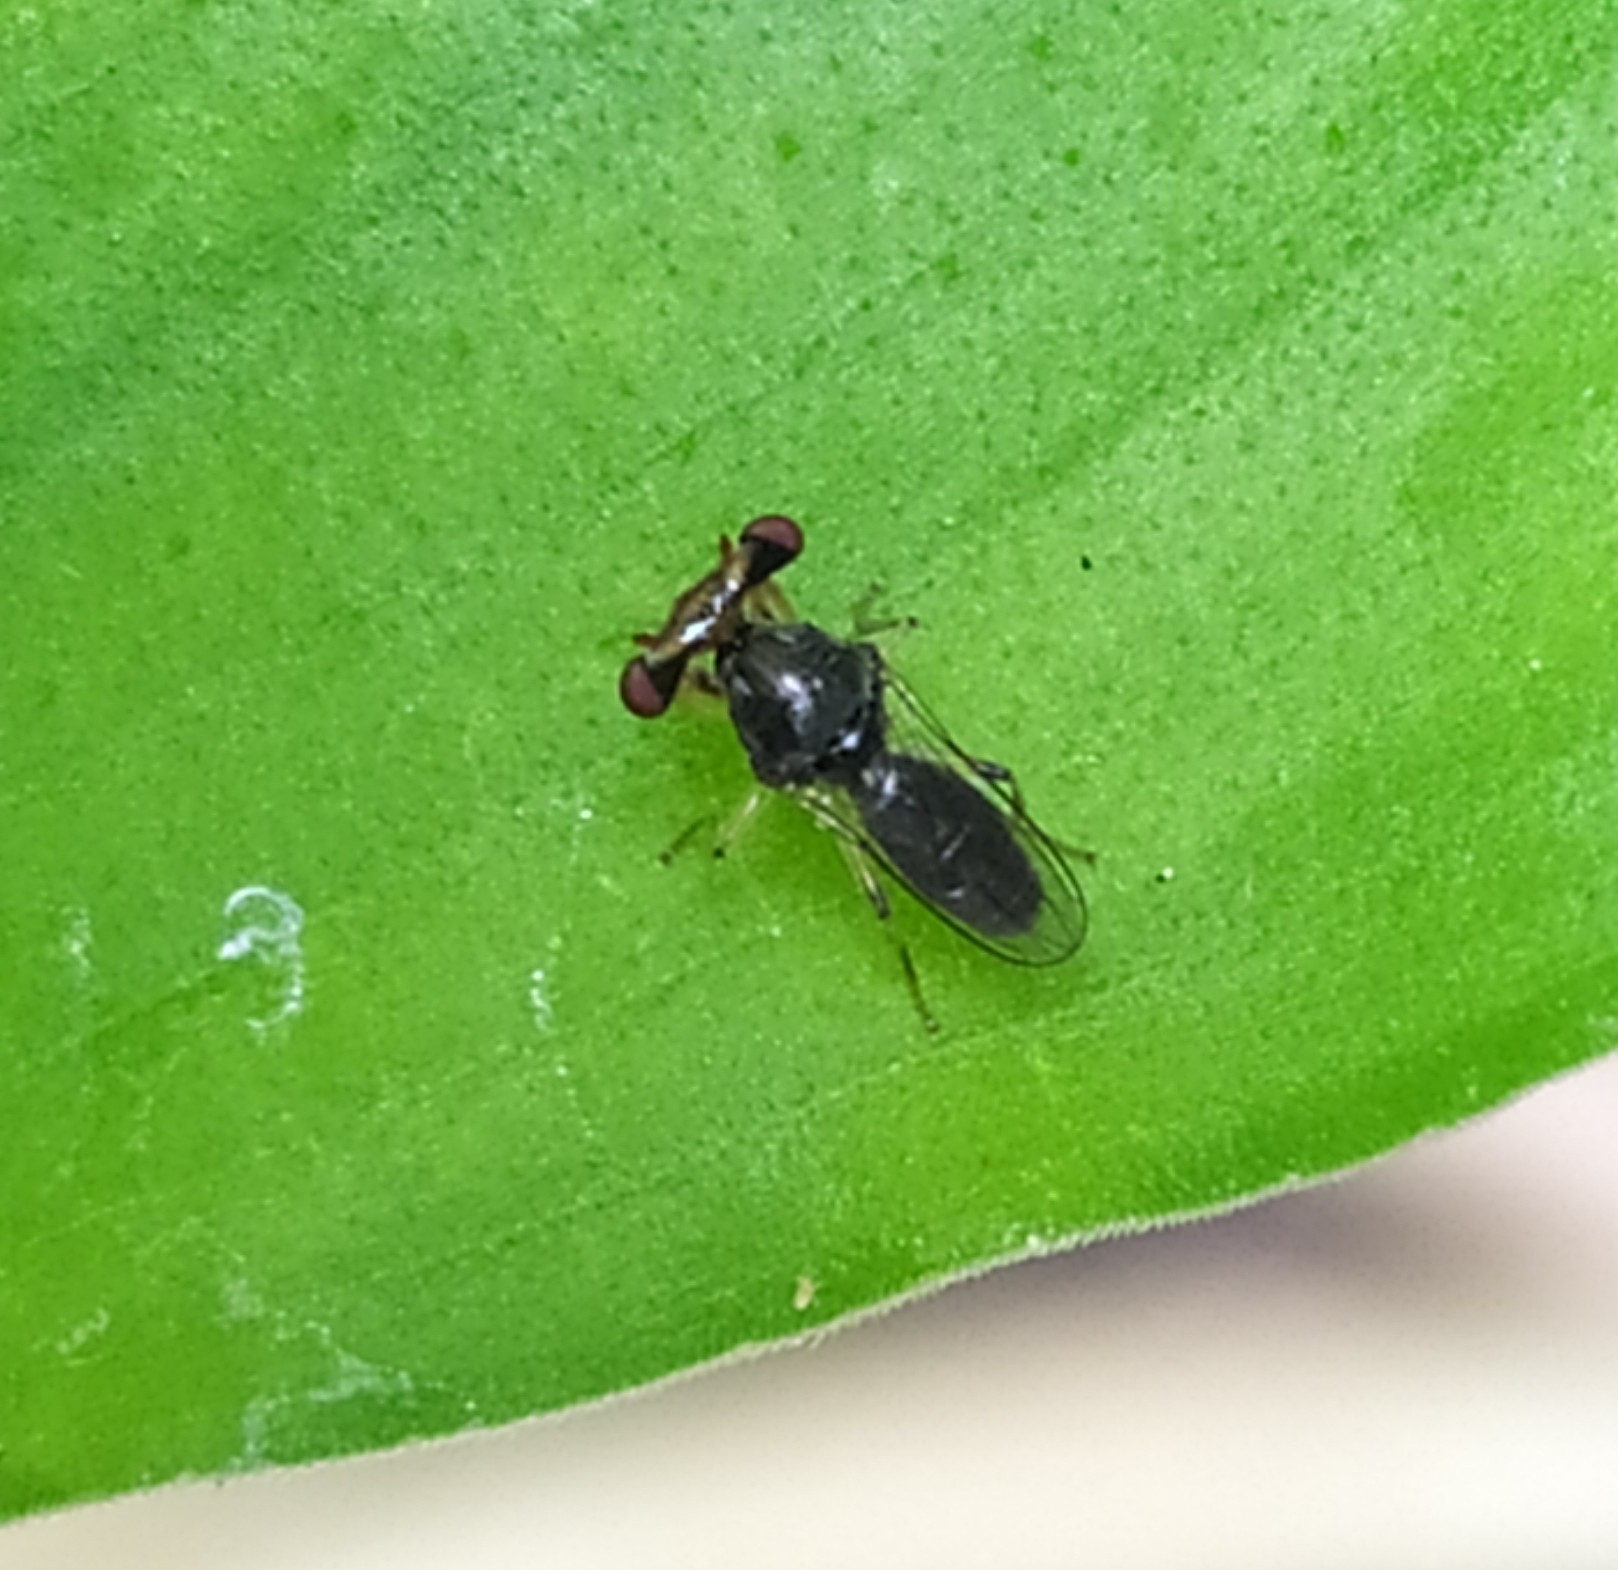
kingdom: Animalia
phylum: Arthropoda
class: Insecta
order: Diptera
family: Diopsidae
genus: Sphyracephala
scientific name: Sphyracephala hearseiana
